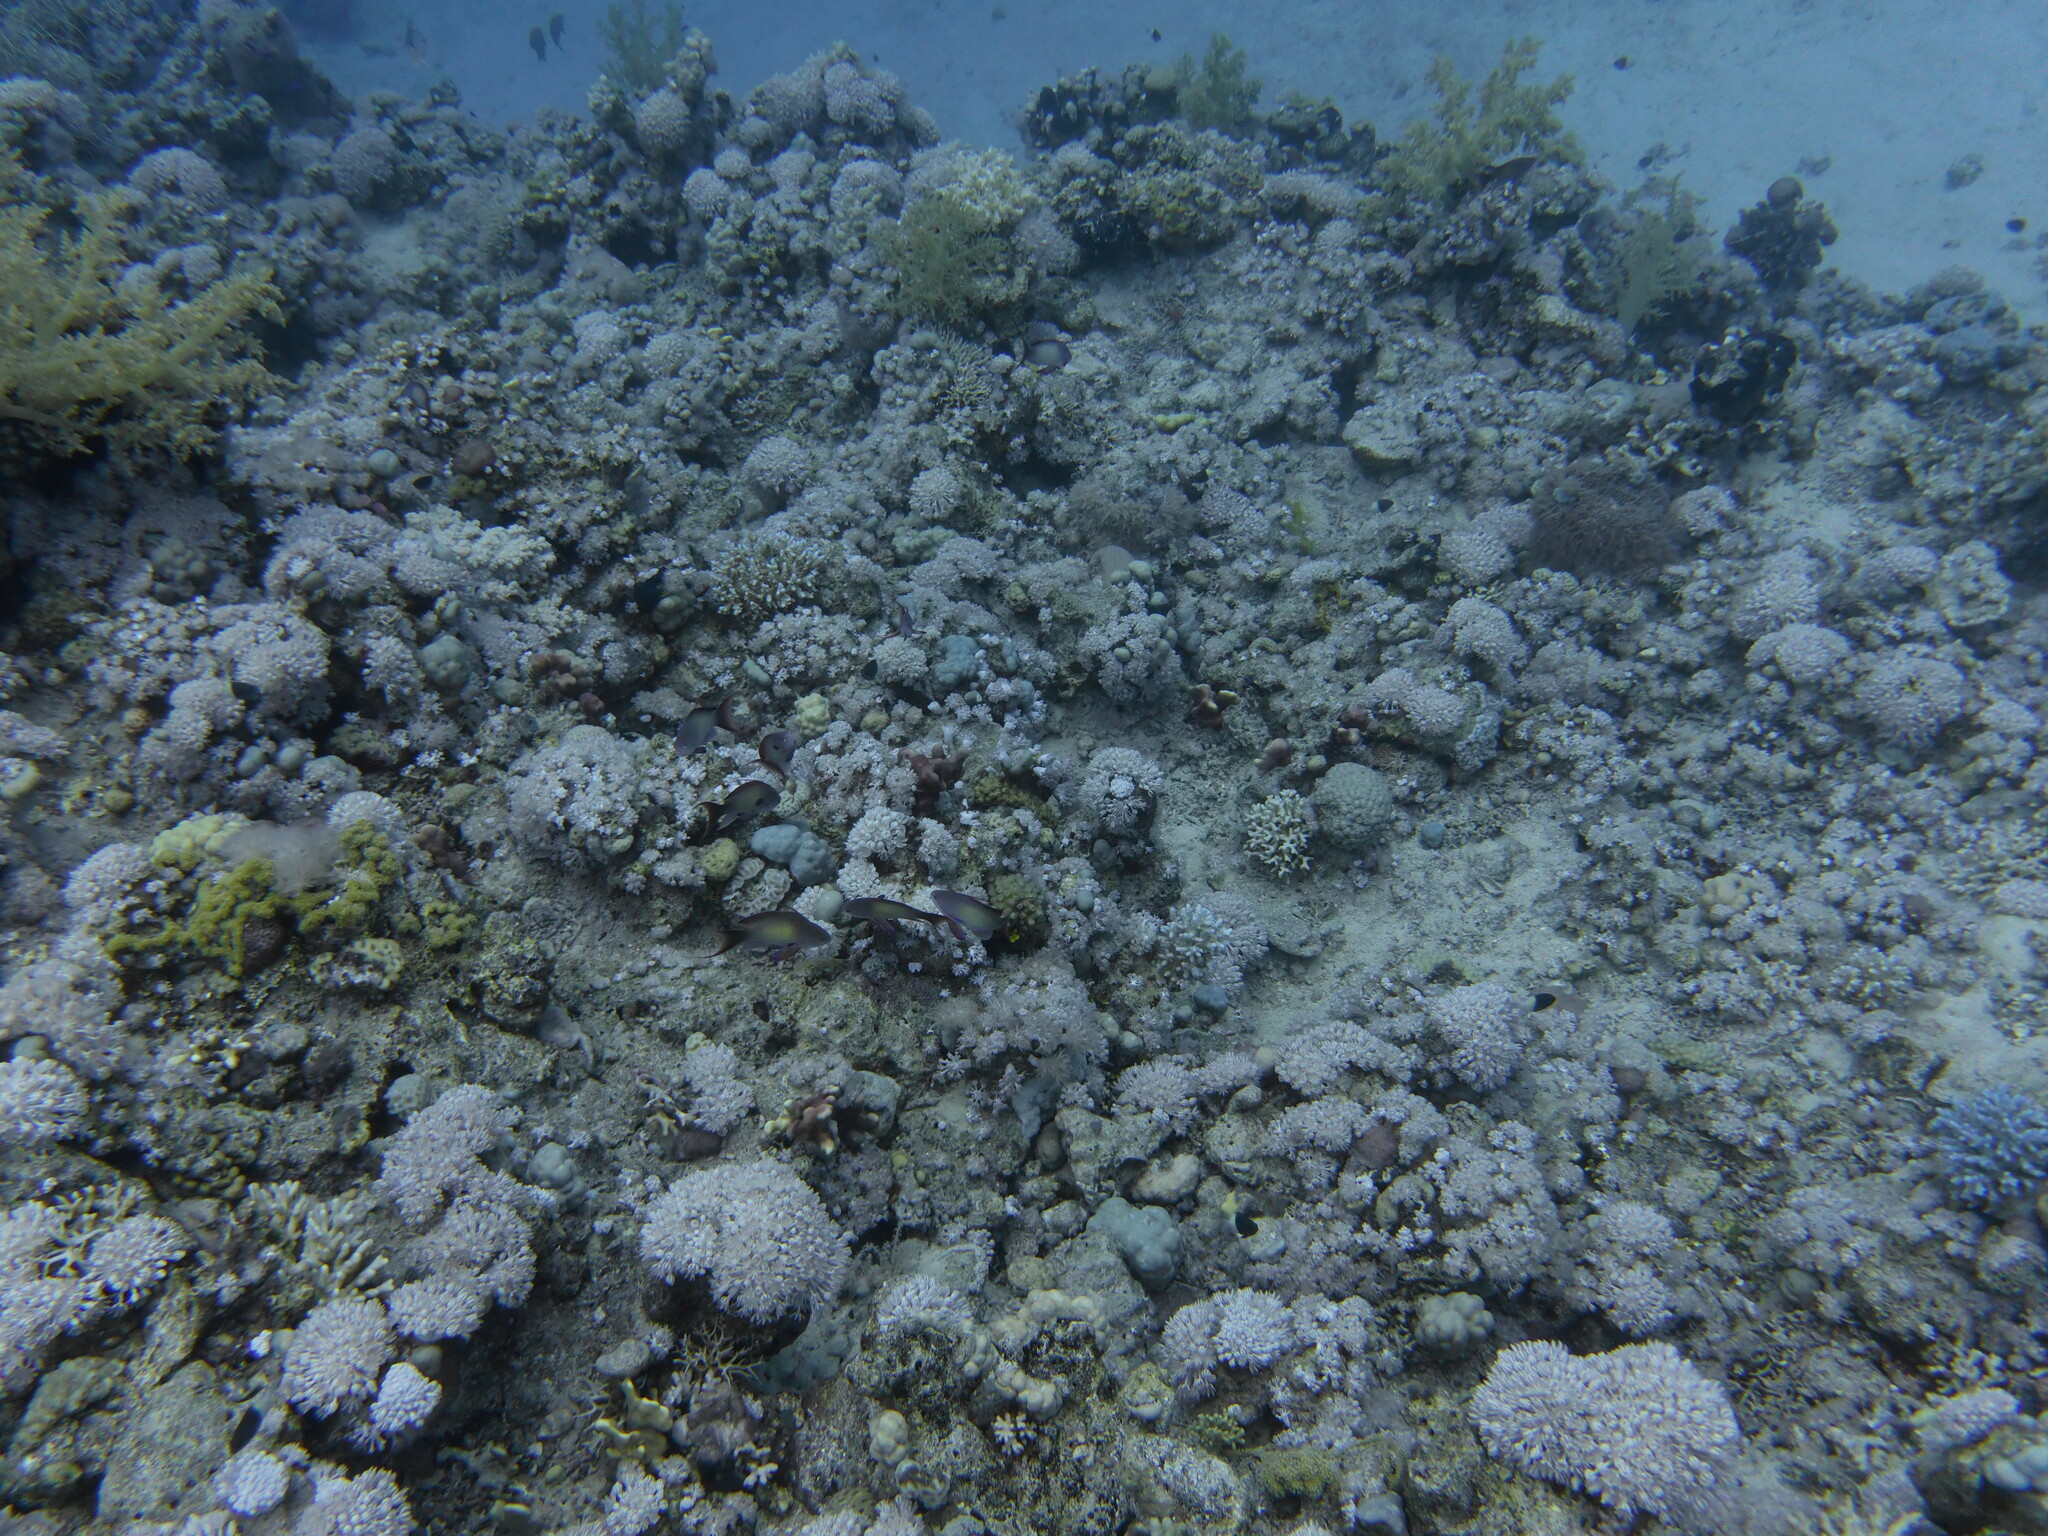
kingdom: Animalia
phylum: Chordata
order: Perciformes
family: Serranidae
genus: Pseudanthias
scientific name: Pseudanthias squamipinnis
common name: Scalefin anthias
